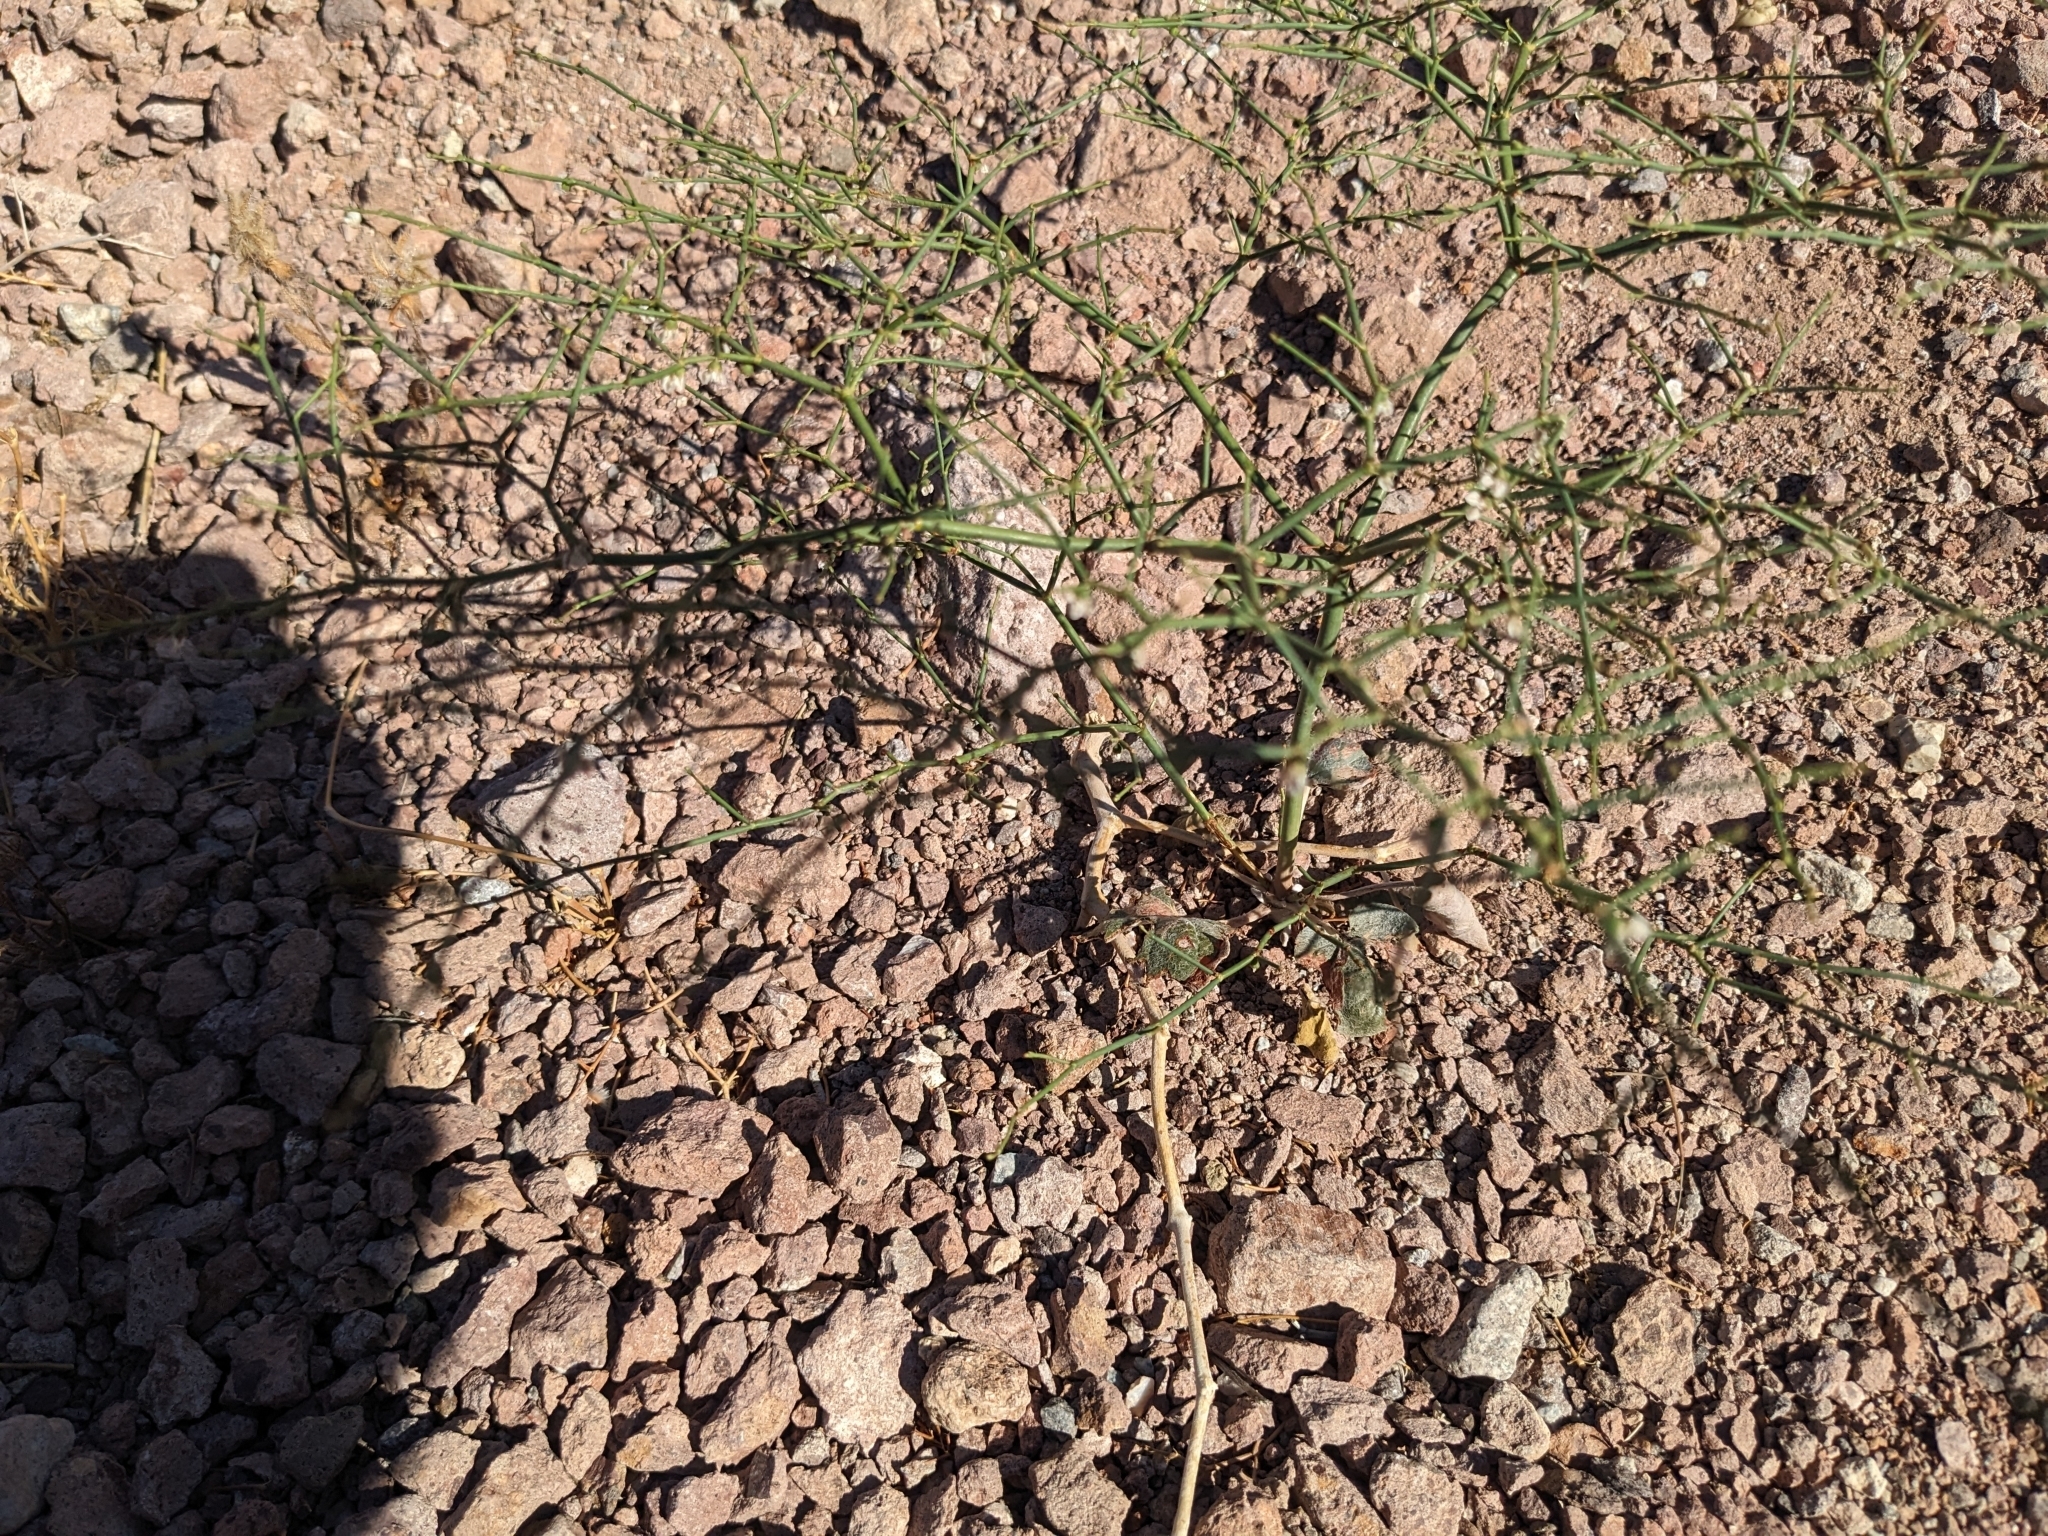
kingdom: Plantae
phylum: Tracheophyta
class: Magnoliopsida
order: Caryophyllales
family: Polygonaceae
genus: Eriogonum
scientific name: Eriogonum deflexum
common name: Skeleton-weed
